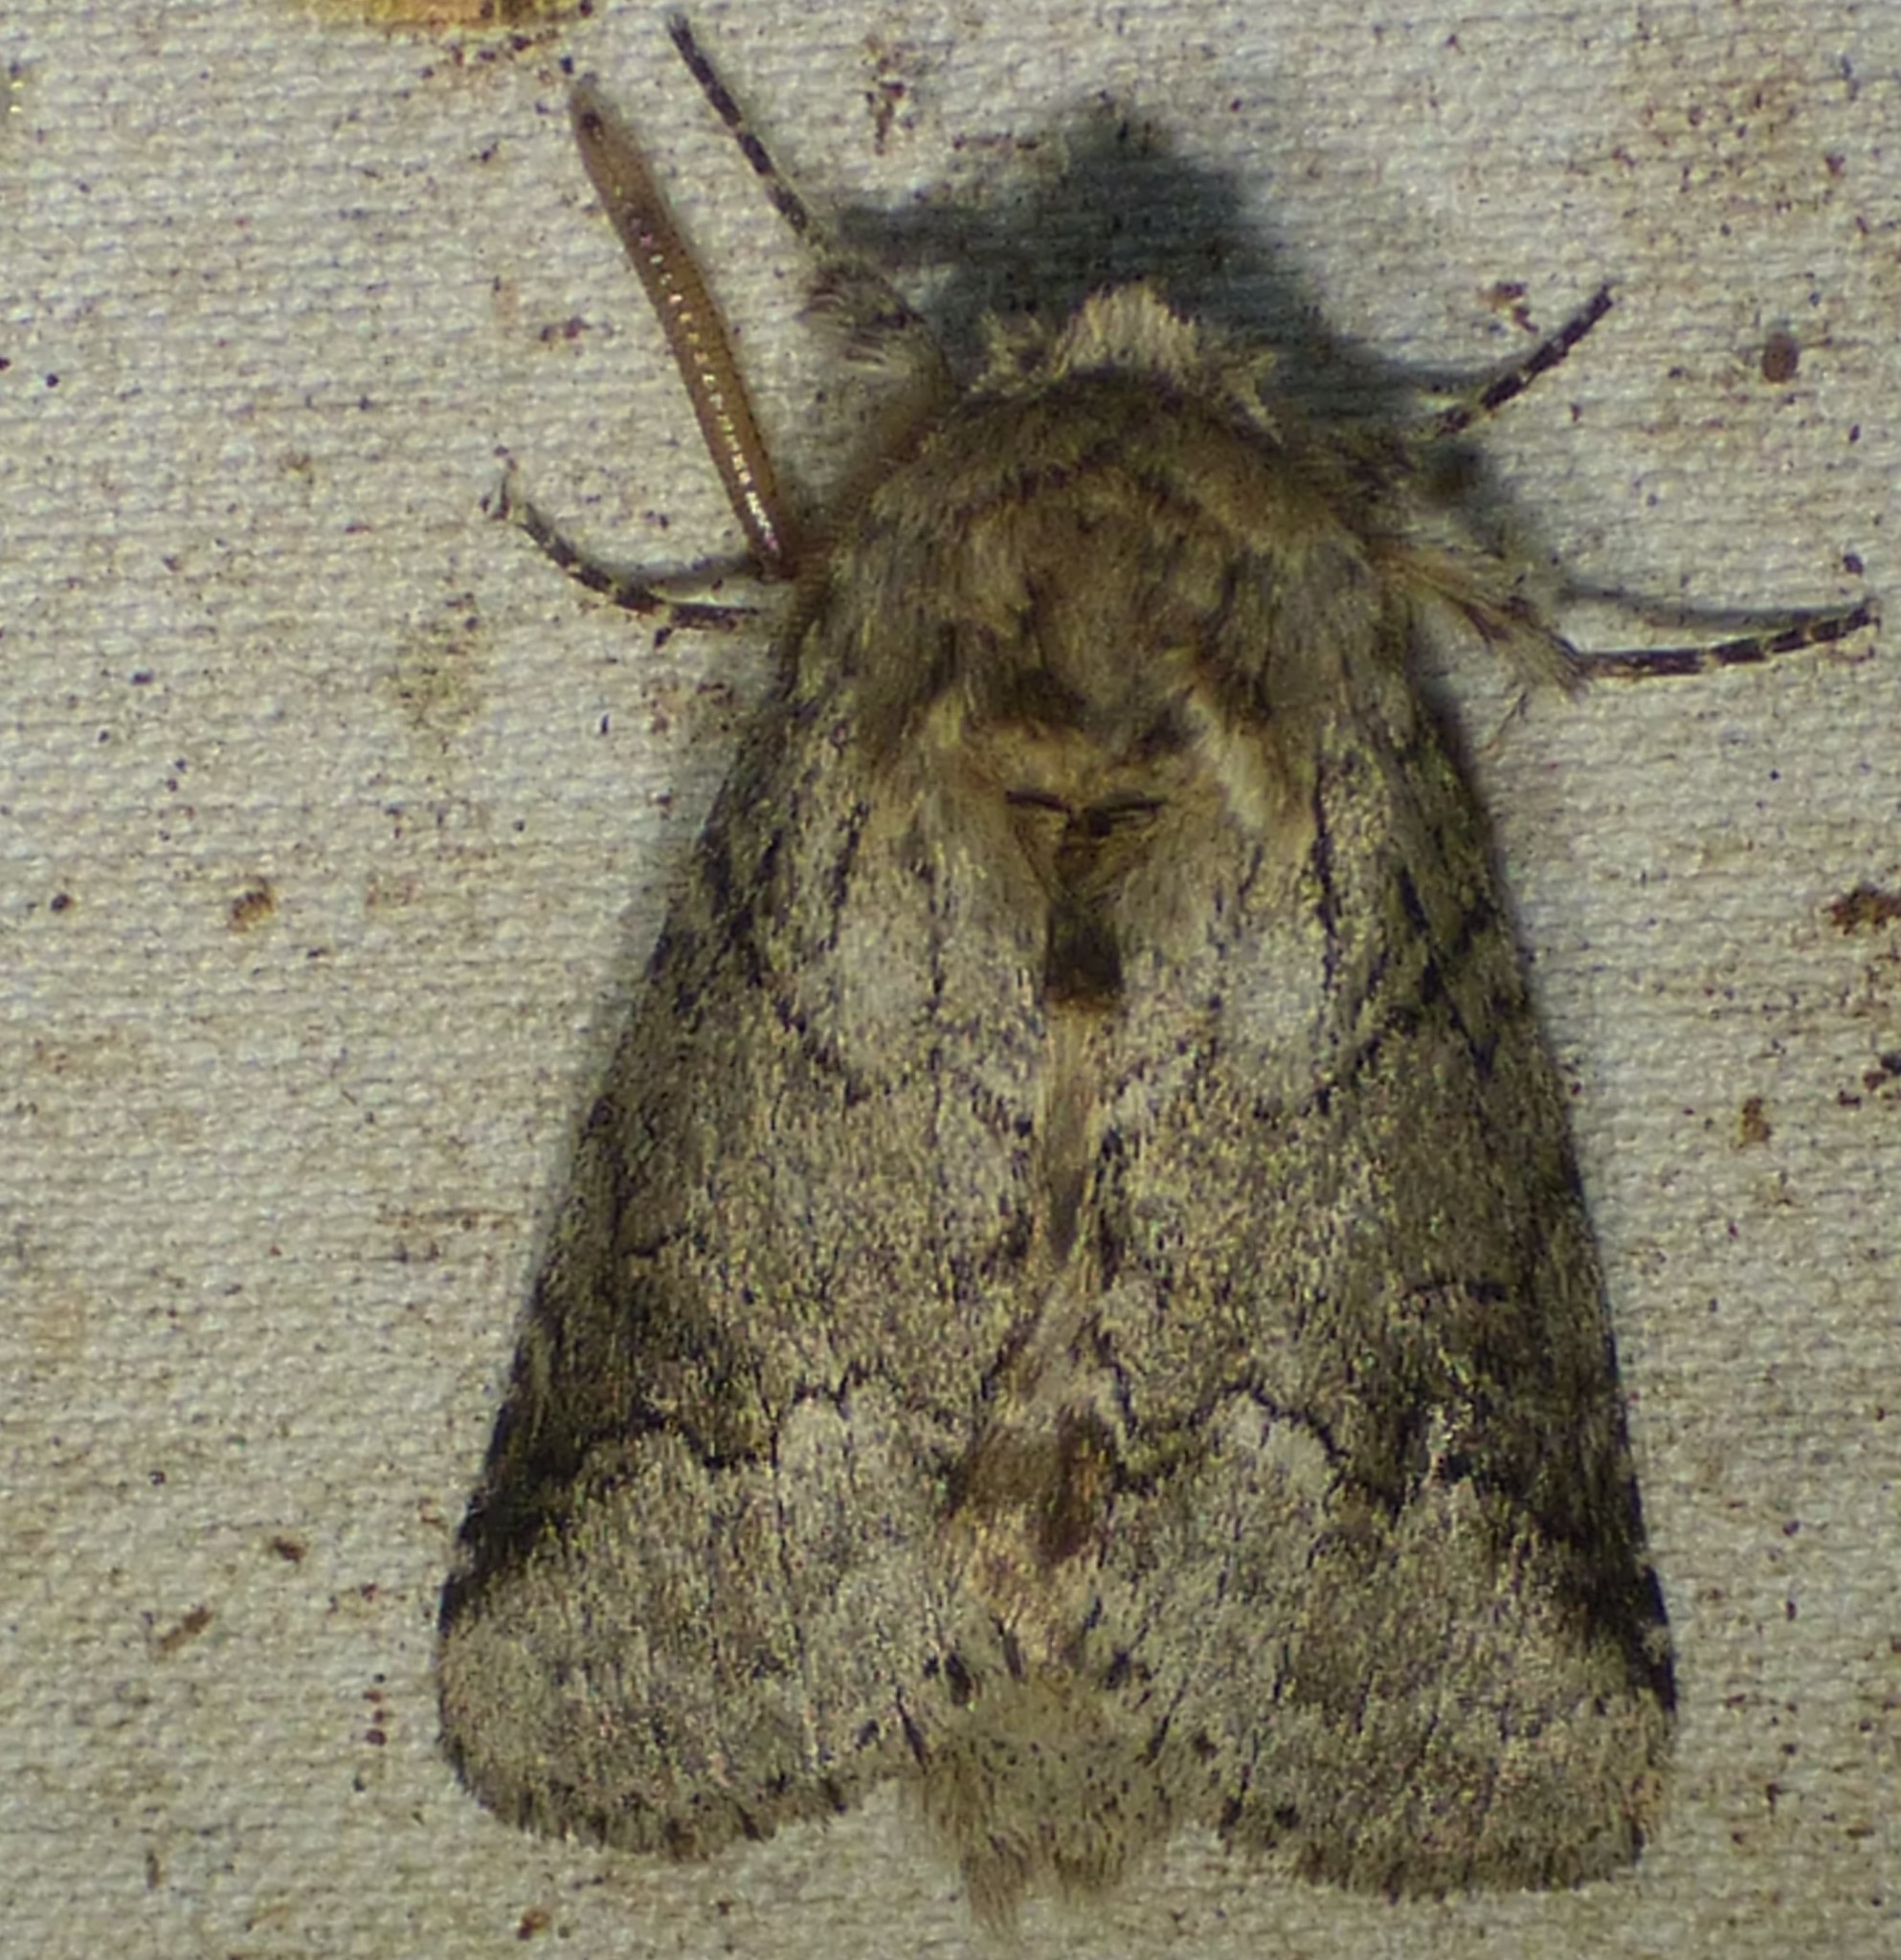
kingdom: Animalia
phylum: Arthropoda
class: Insecta
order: Lepidoptera
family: Notodontidae
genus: Lochmaeus
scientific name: Lochmaeus bilineata
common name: Double-lined prominent
